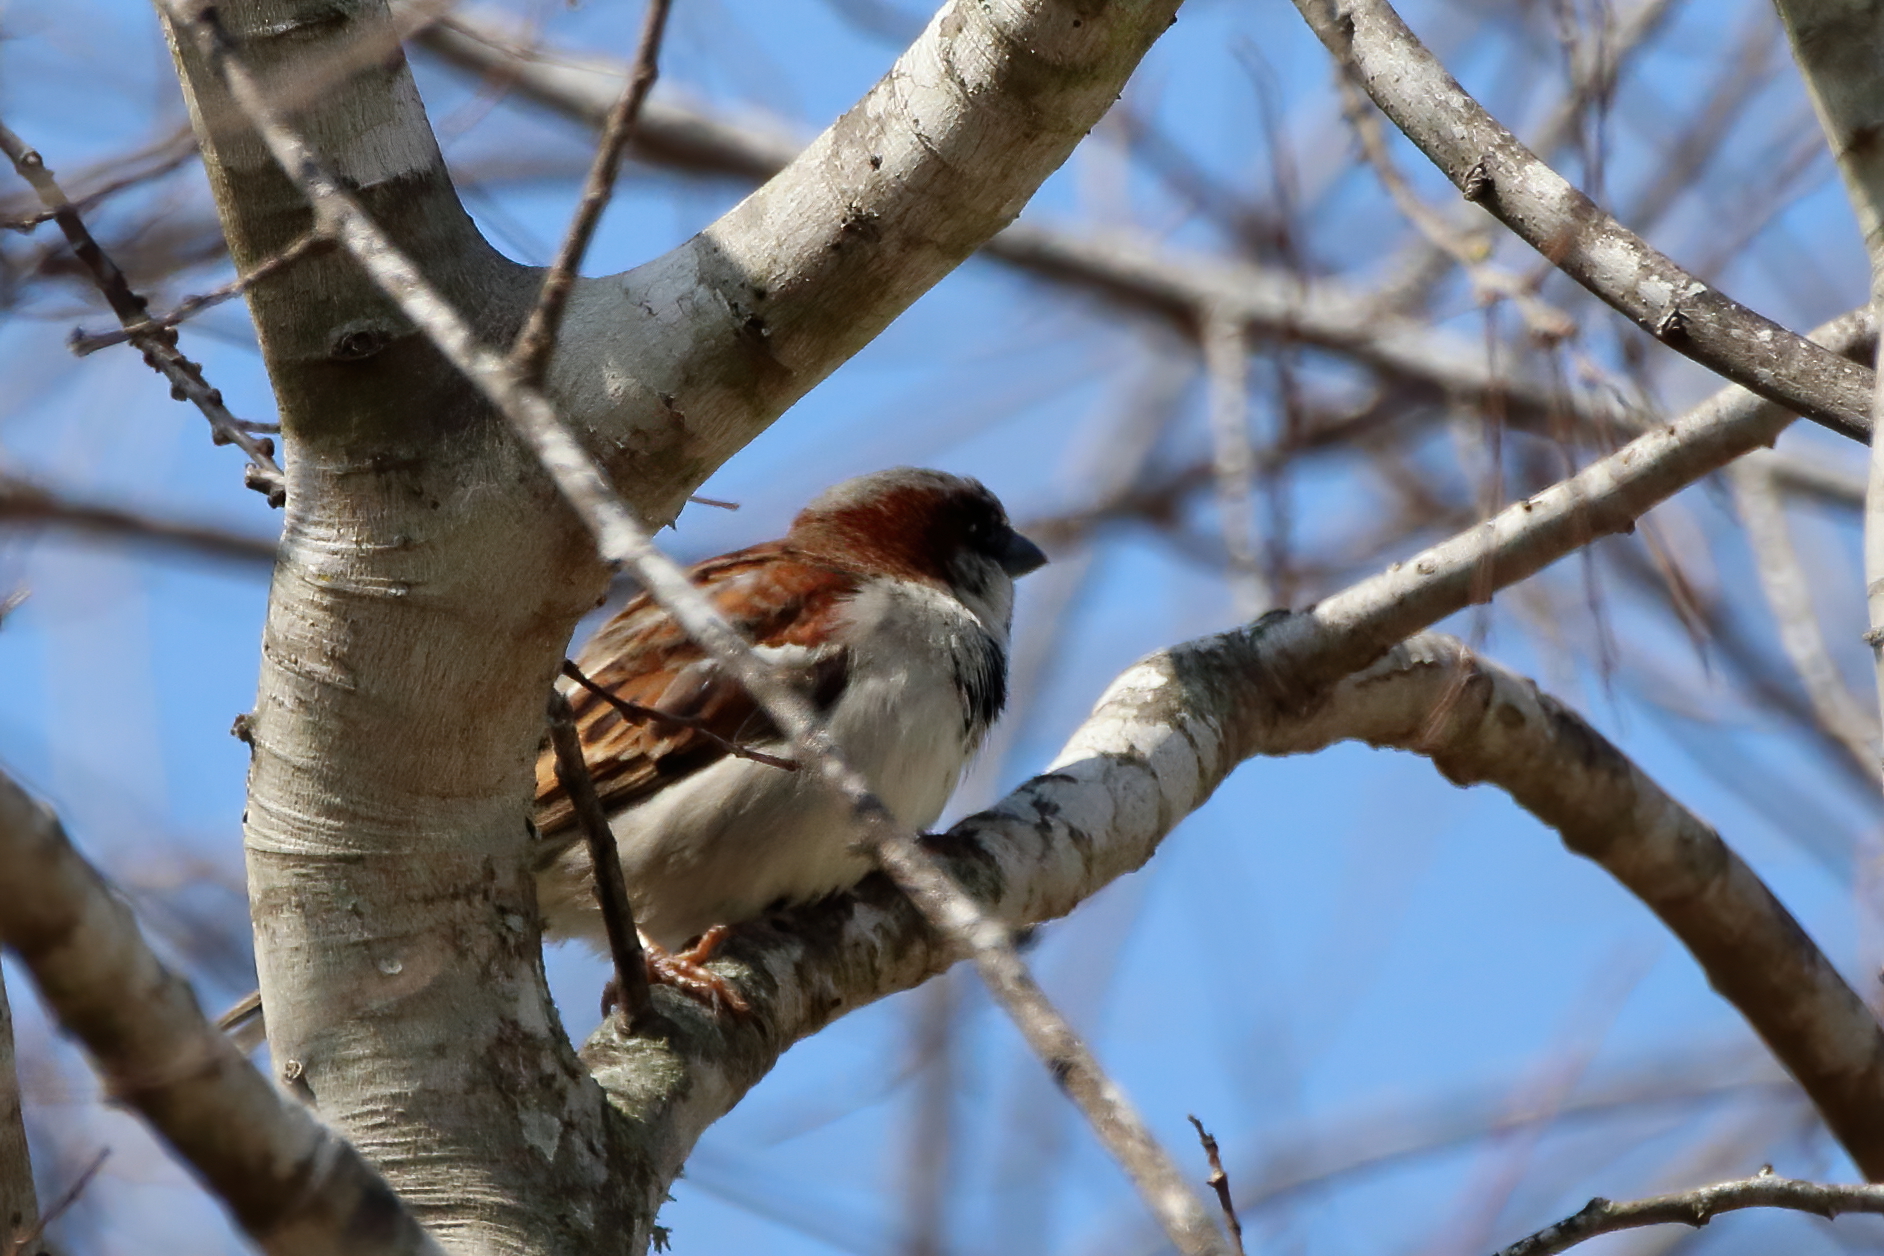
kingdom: Animalia
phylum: Chordata
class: Aves
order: Passeriformes
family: Passeridae
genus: Passer
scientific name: Passer domesticus
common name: House sparrow
